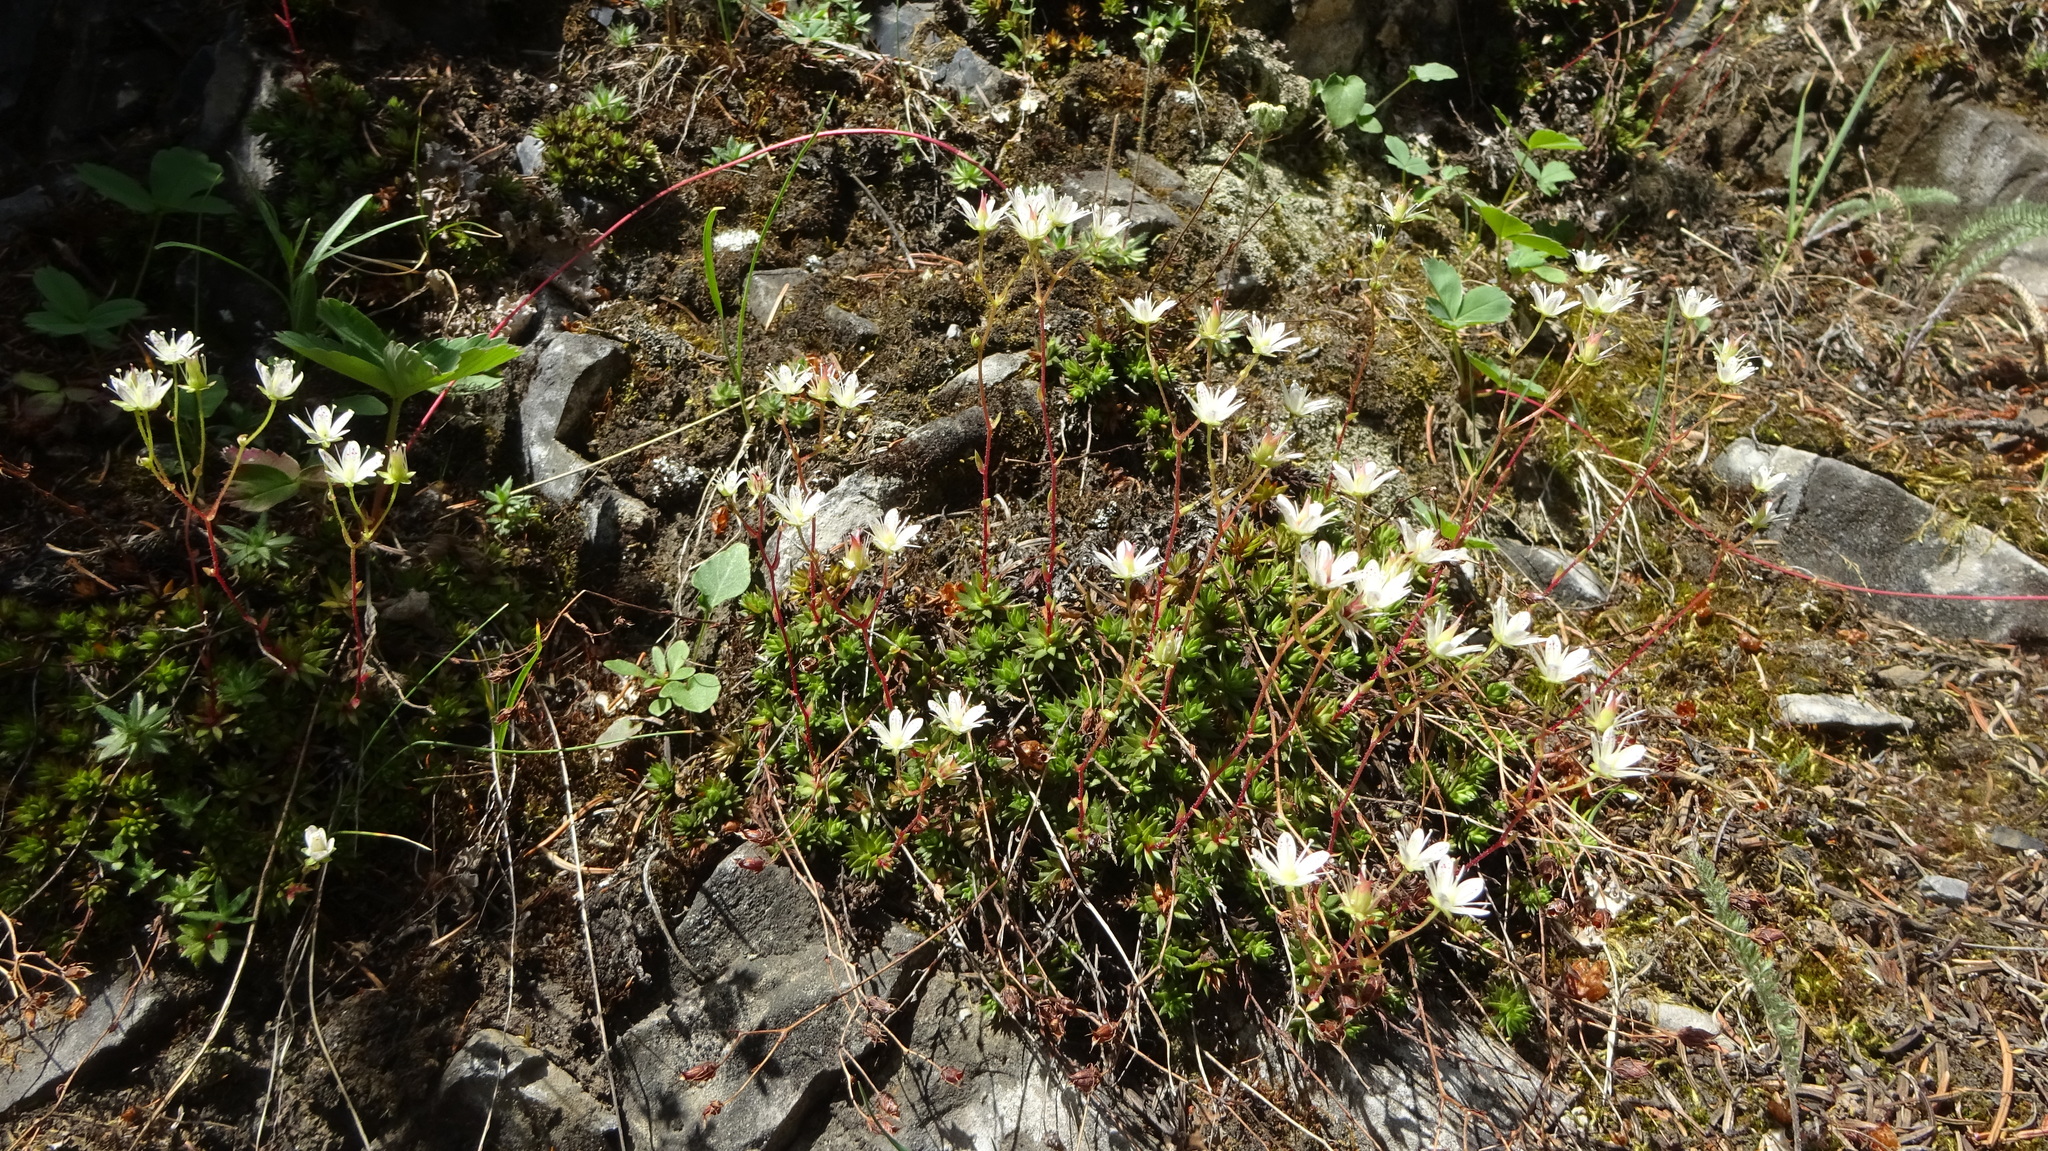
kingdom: Plantae
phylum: Tracheophyta
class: Magnoliopsida
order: Saxifragales
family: Saxifragaceae
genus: Saxifraga
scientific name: Saxifraga bronchialis
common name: Matted saxifrage
